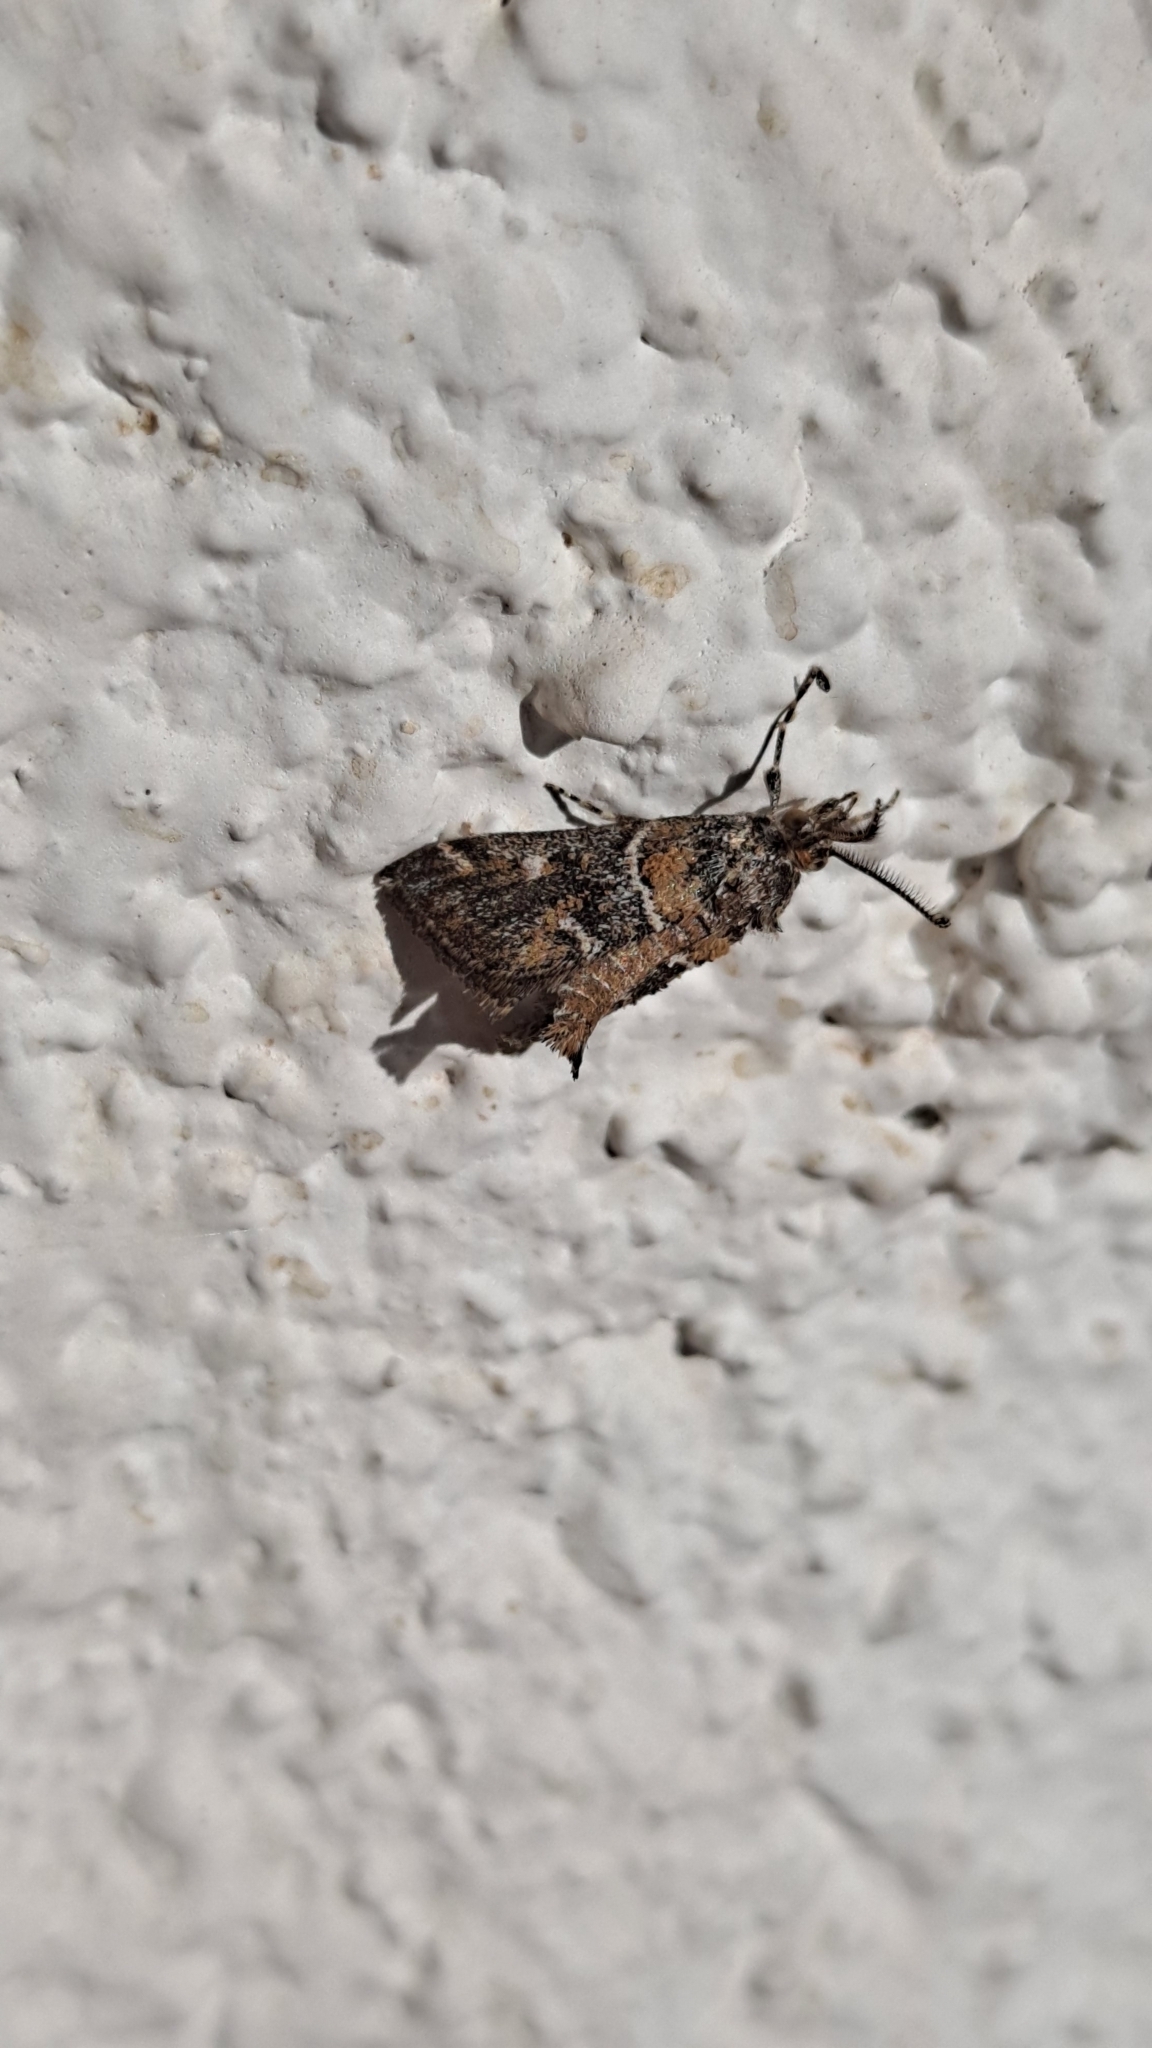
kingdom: Animalia
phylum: Arthropoda
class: Insecta
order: Lepidoptera
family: Pyralidae
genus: Hypotia
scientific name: Hypotia miegi
